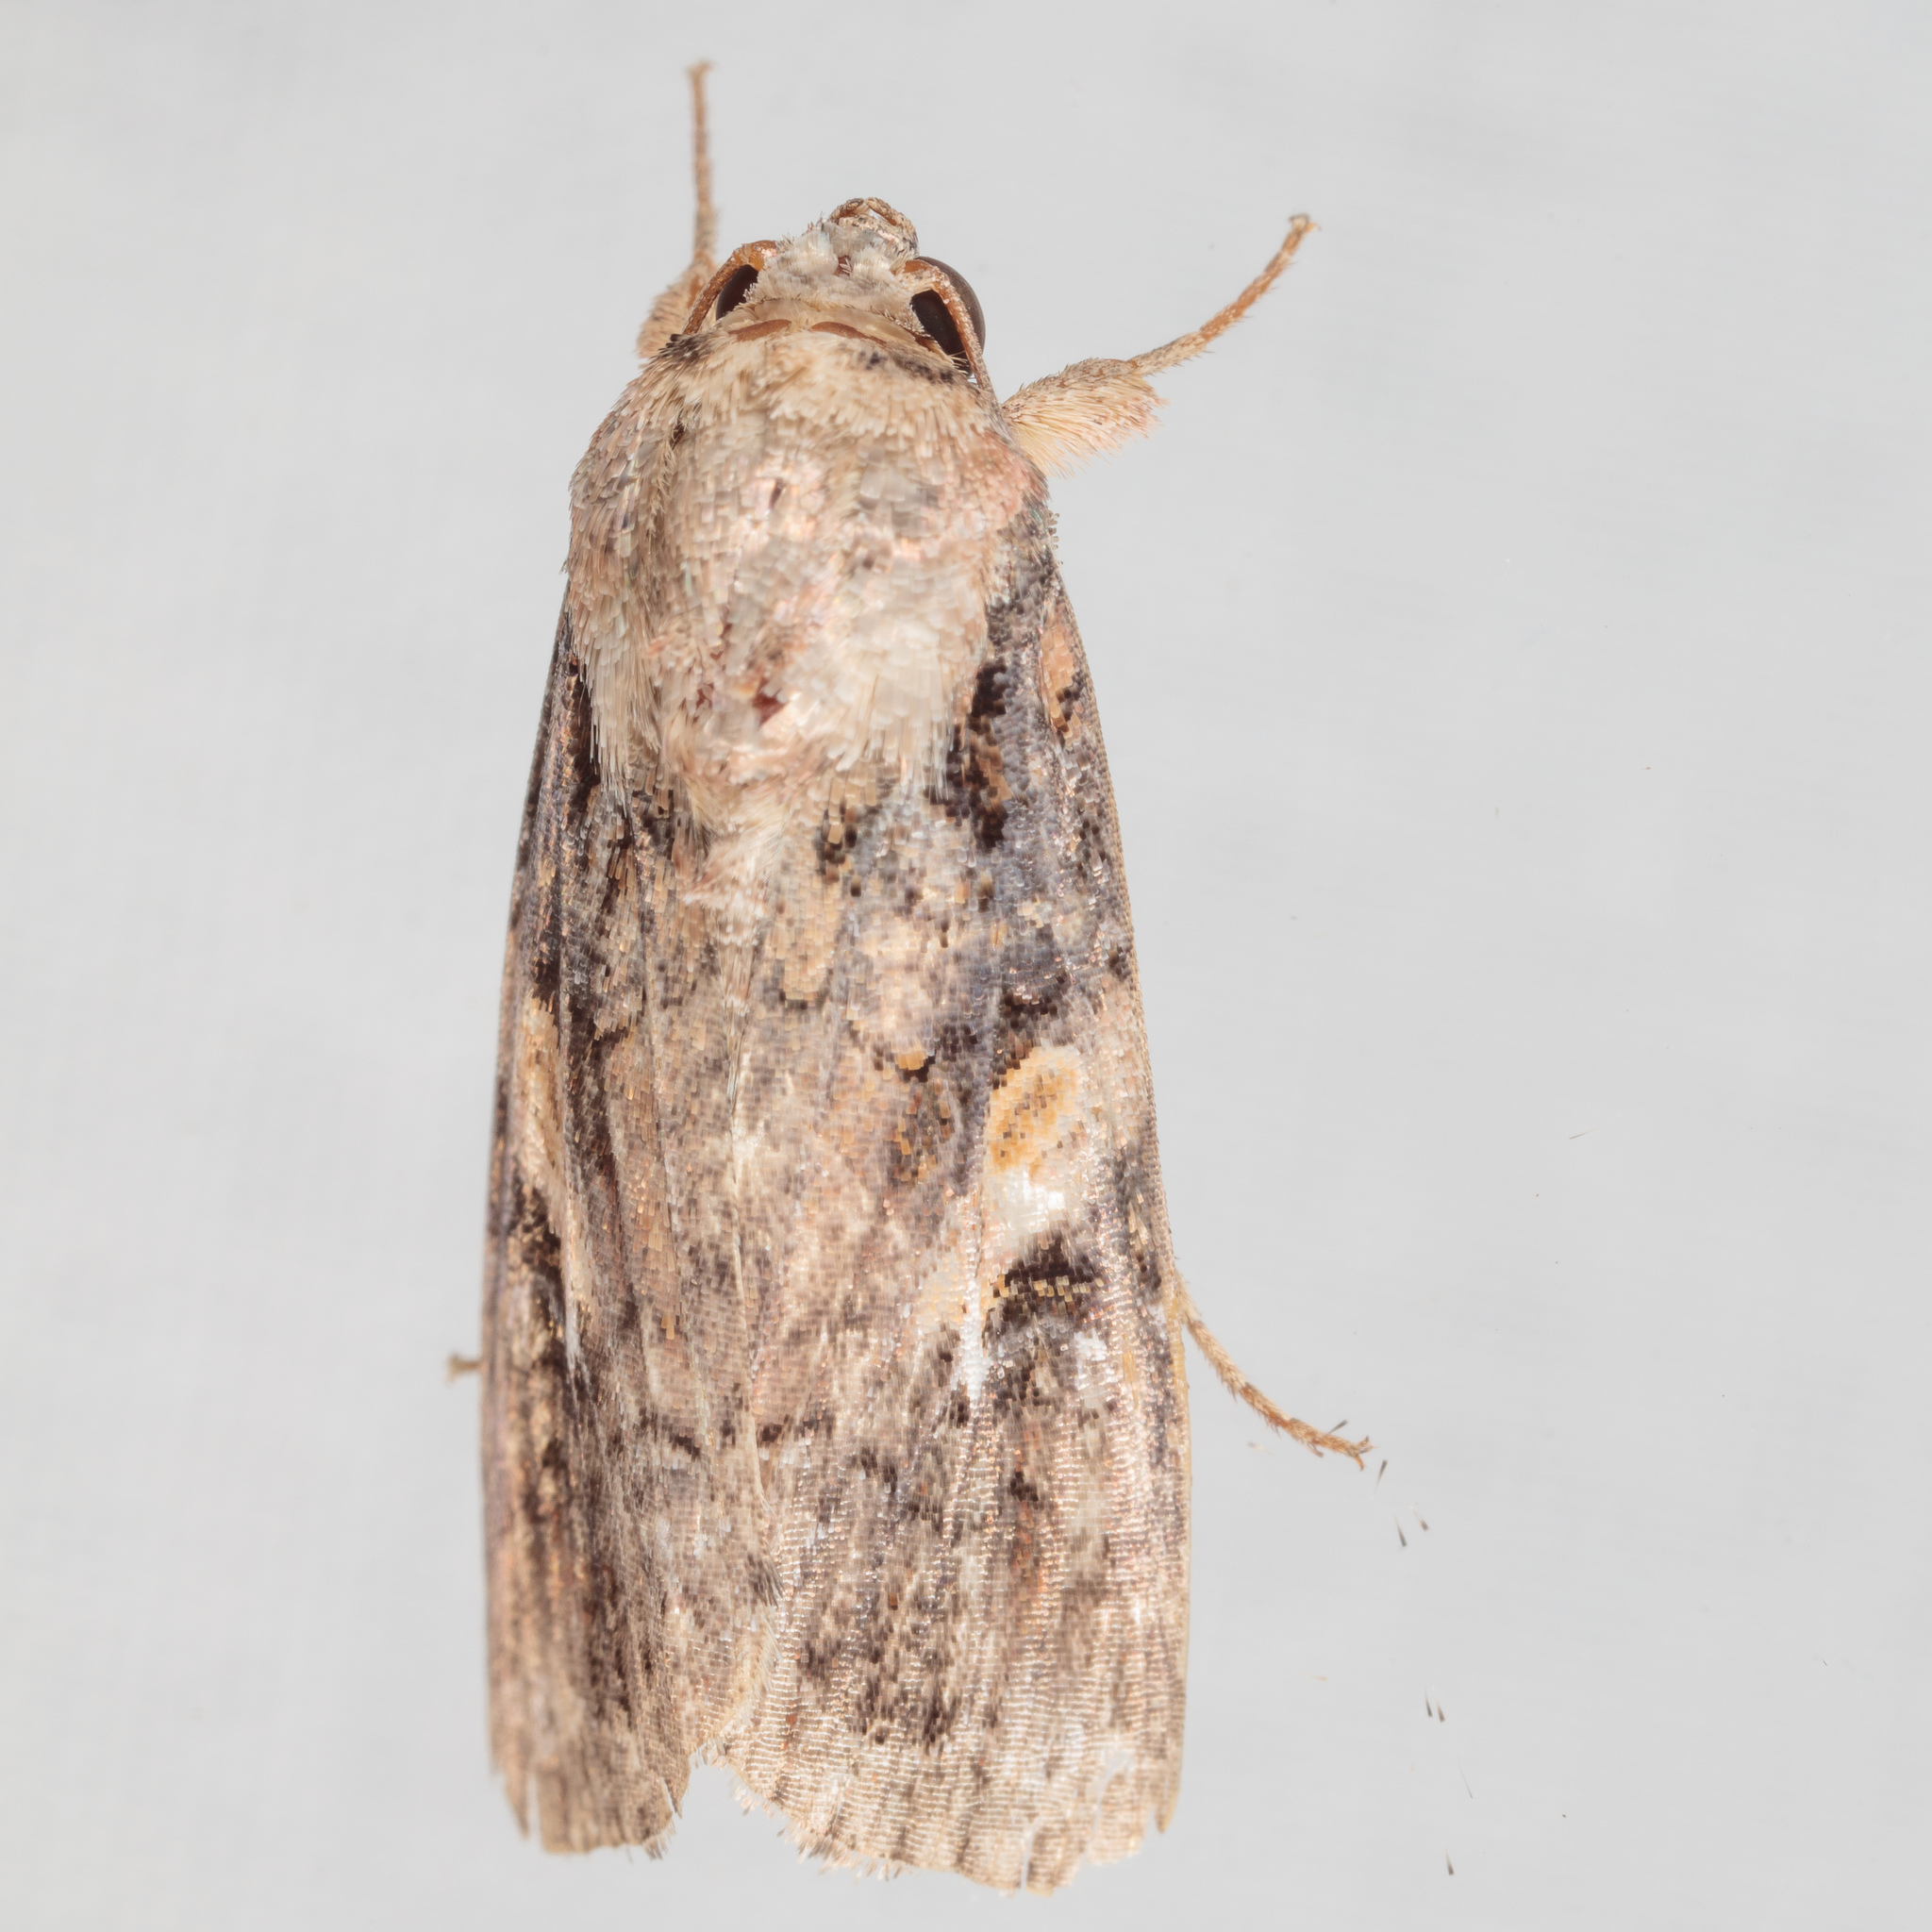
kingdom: Animalia
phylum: Arthropoda
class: Insecta
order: Lepidoptera
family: Noctuidae
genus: Spodoptera
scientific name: Spodoptera frugiperda
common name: Fall armyworm
